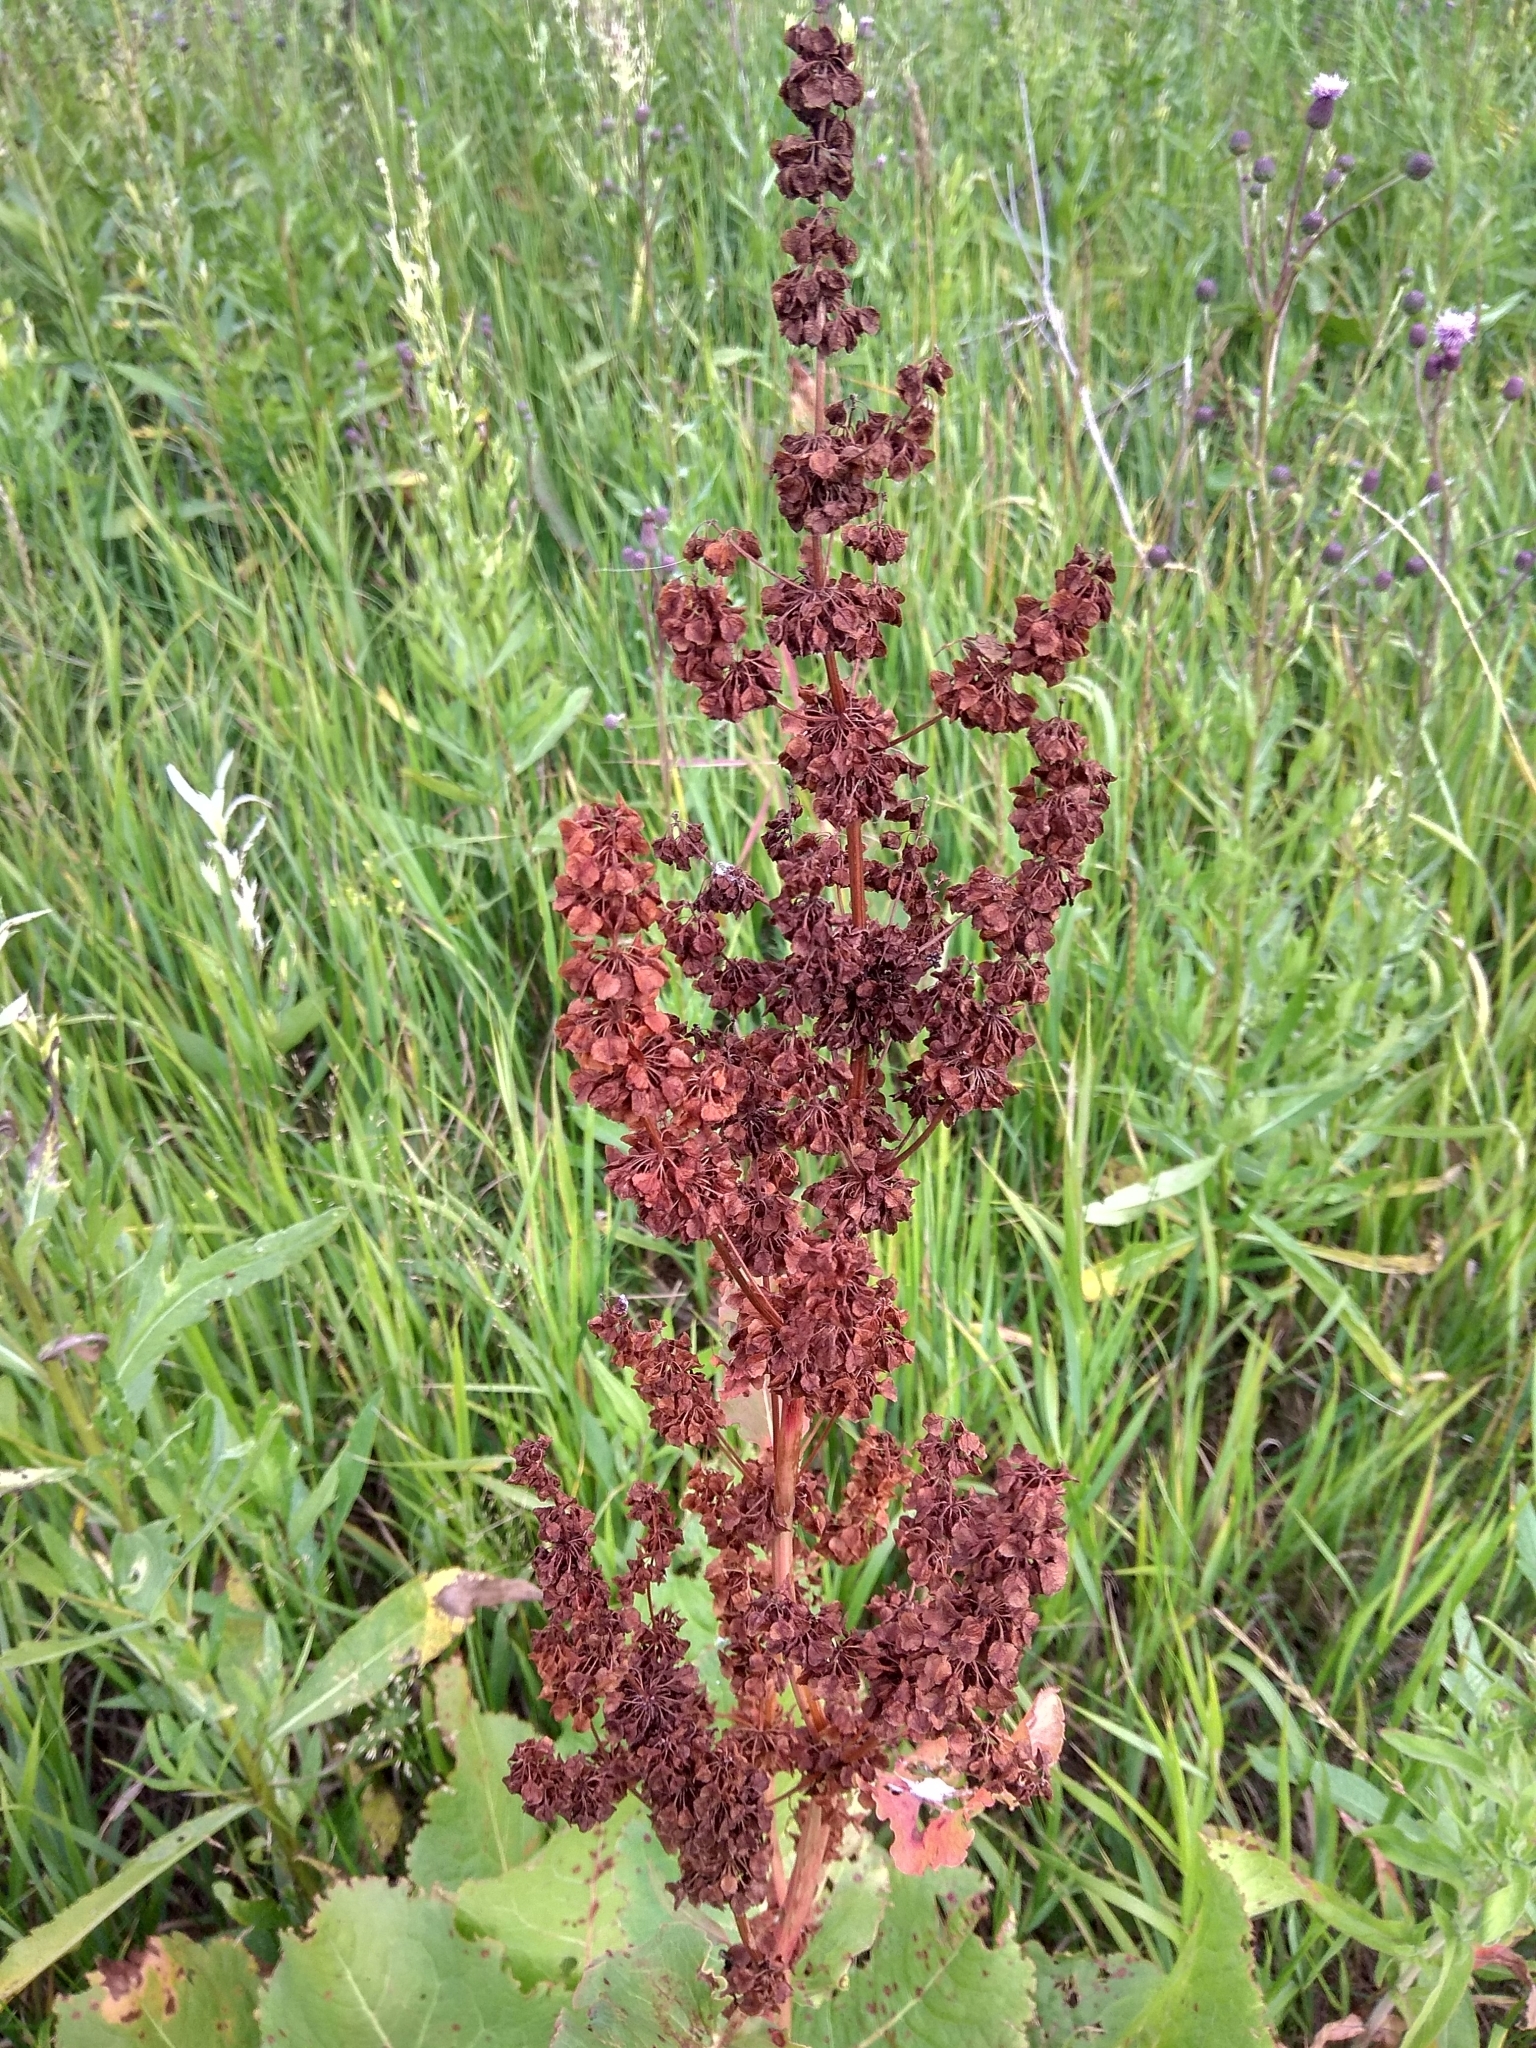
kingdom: Plantae
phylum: Tracheophyta
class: Magnoliopsida
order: Caryophyllales
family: Polygonaceae
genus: Rumex
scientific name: Rumex confertus
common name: Russian dock
